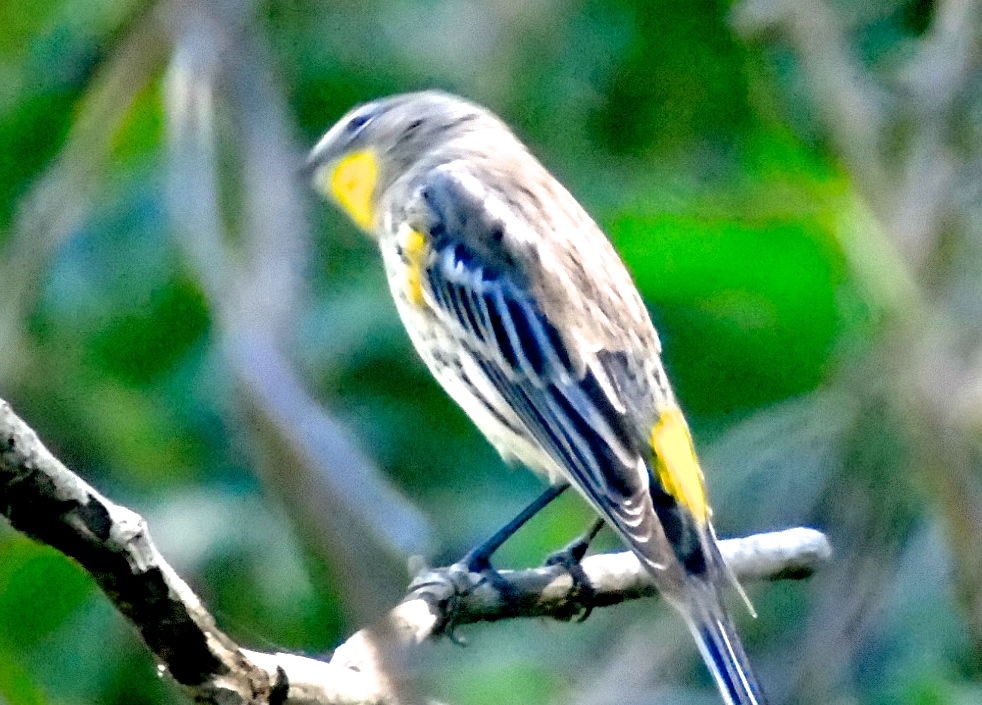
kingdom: Animalia
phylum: Chordata
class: Aves
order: Passeriformes
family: Parulidae
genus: Setophaga
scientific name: Setophaga coronata
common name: Myrtle warbler
